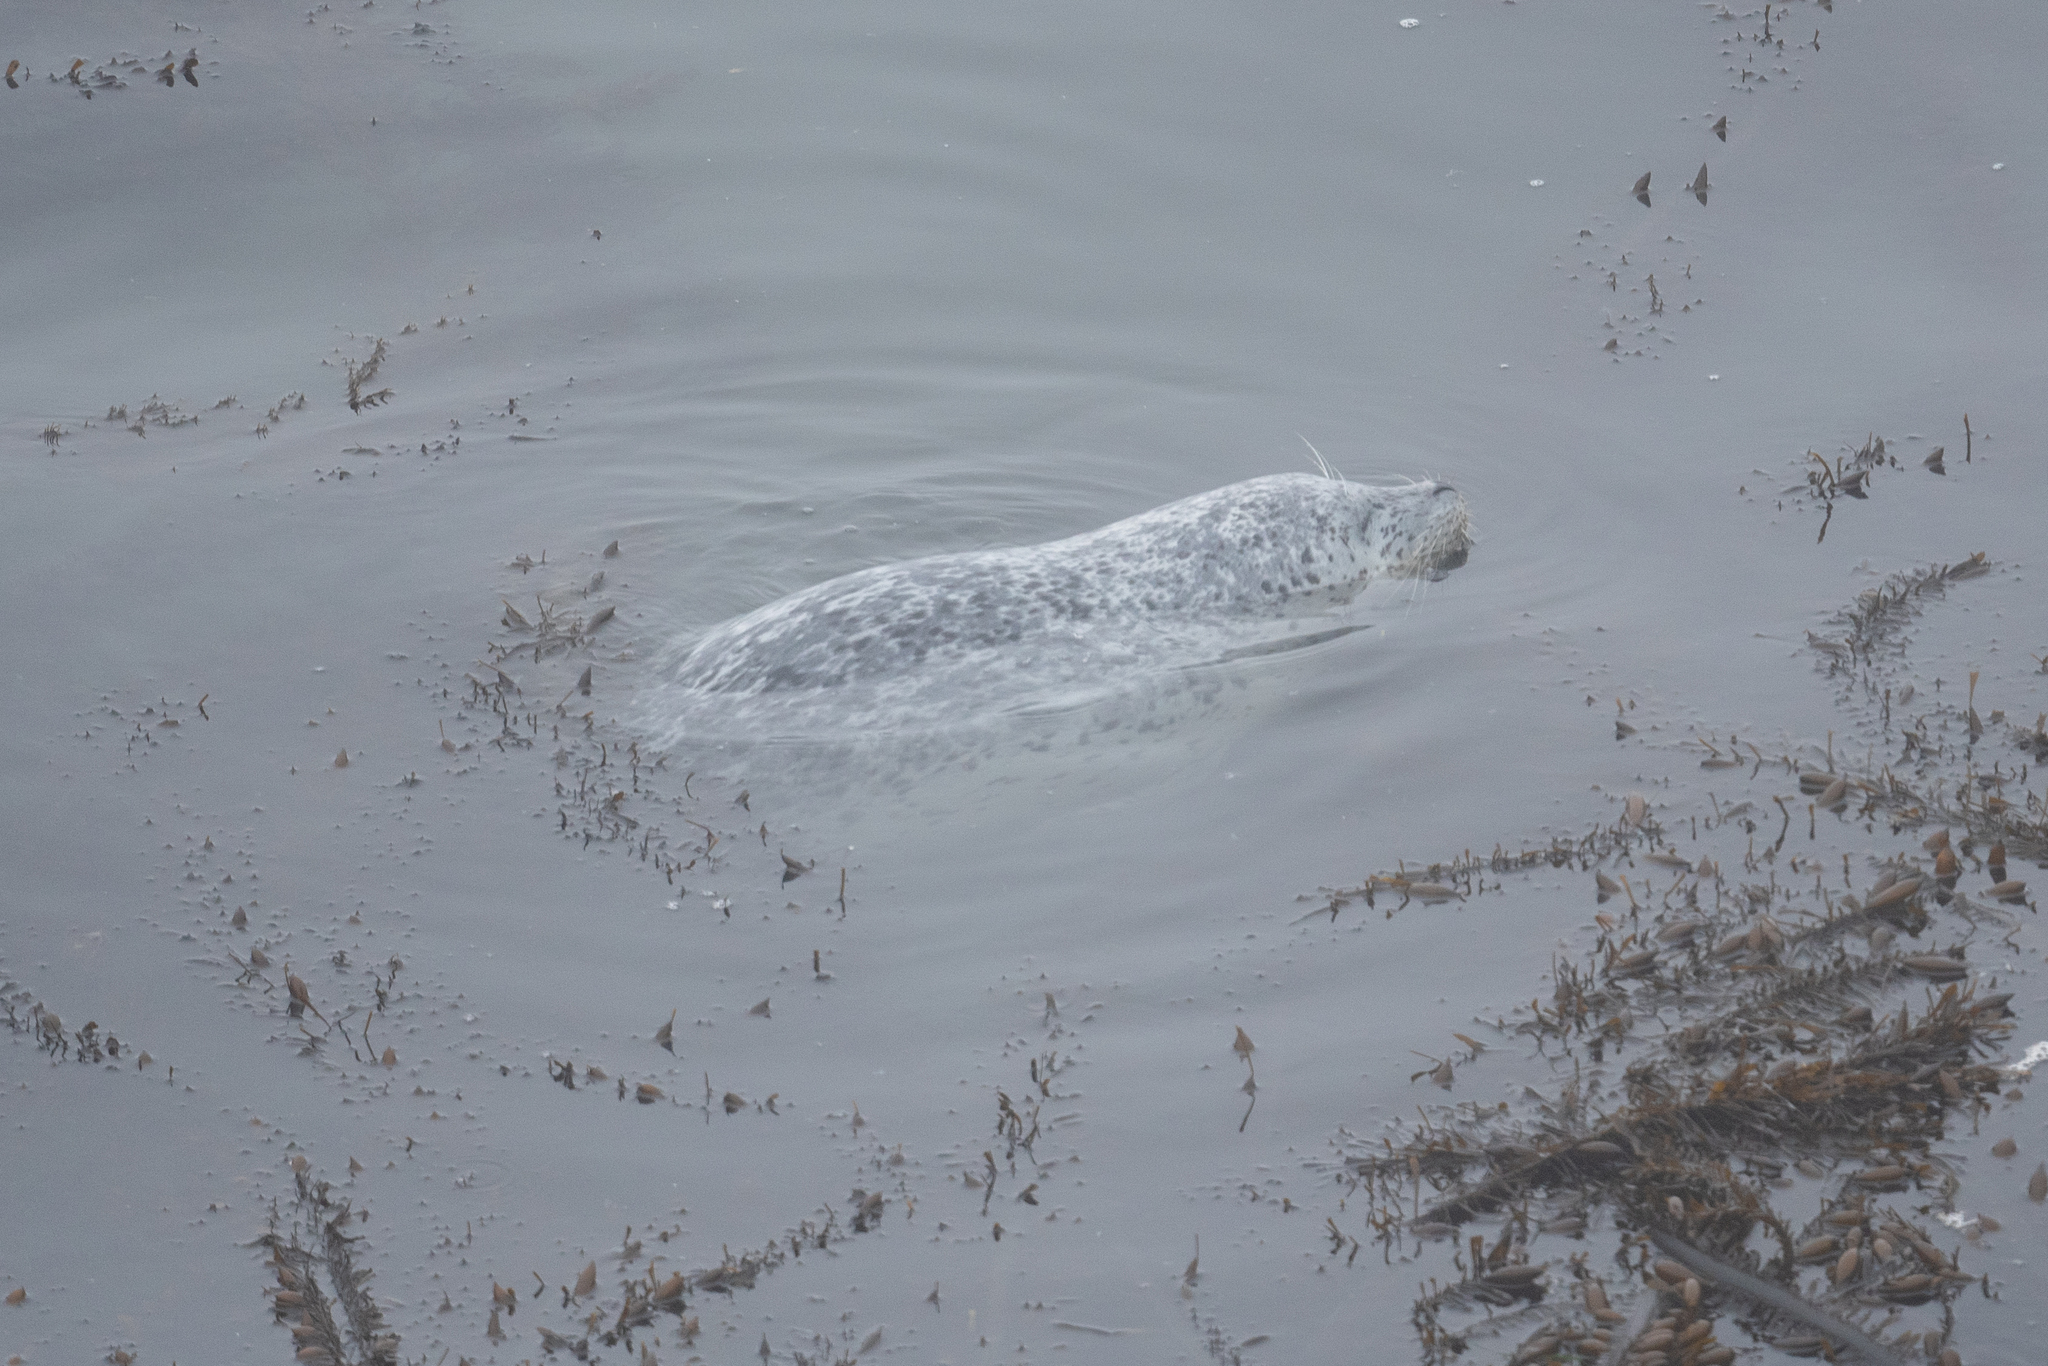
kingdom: Animalia
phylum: Chordata
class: Mammalia
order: Carnivora
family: Phocidae
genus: Phoca
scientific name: Phoca vitulina
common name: Harbor seal
